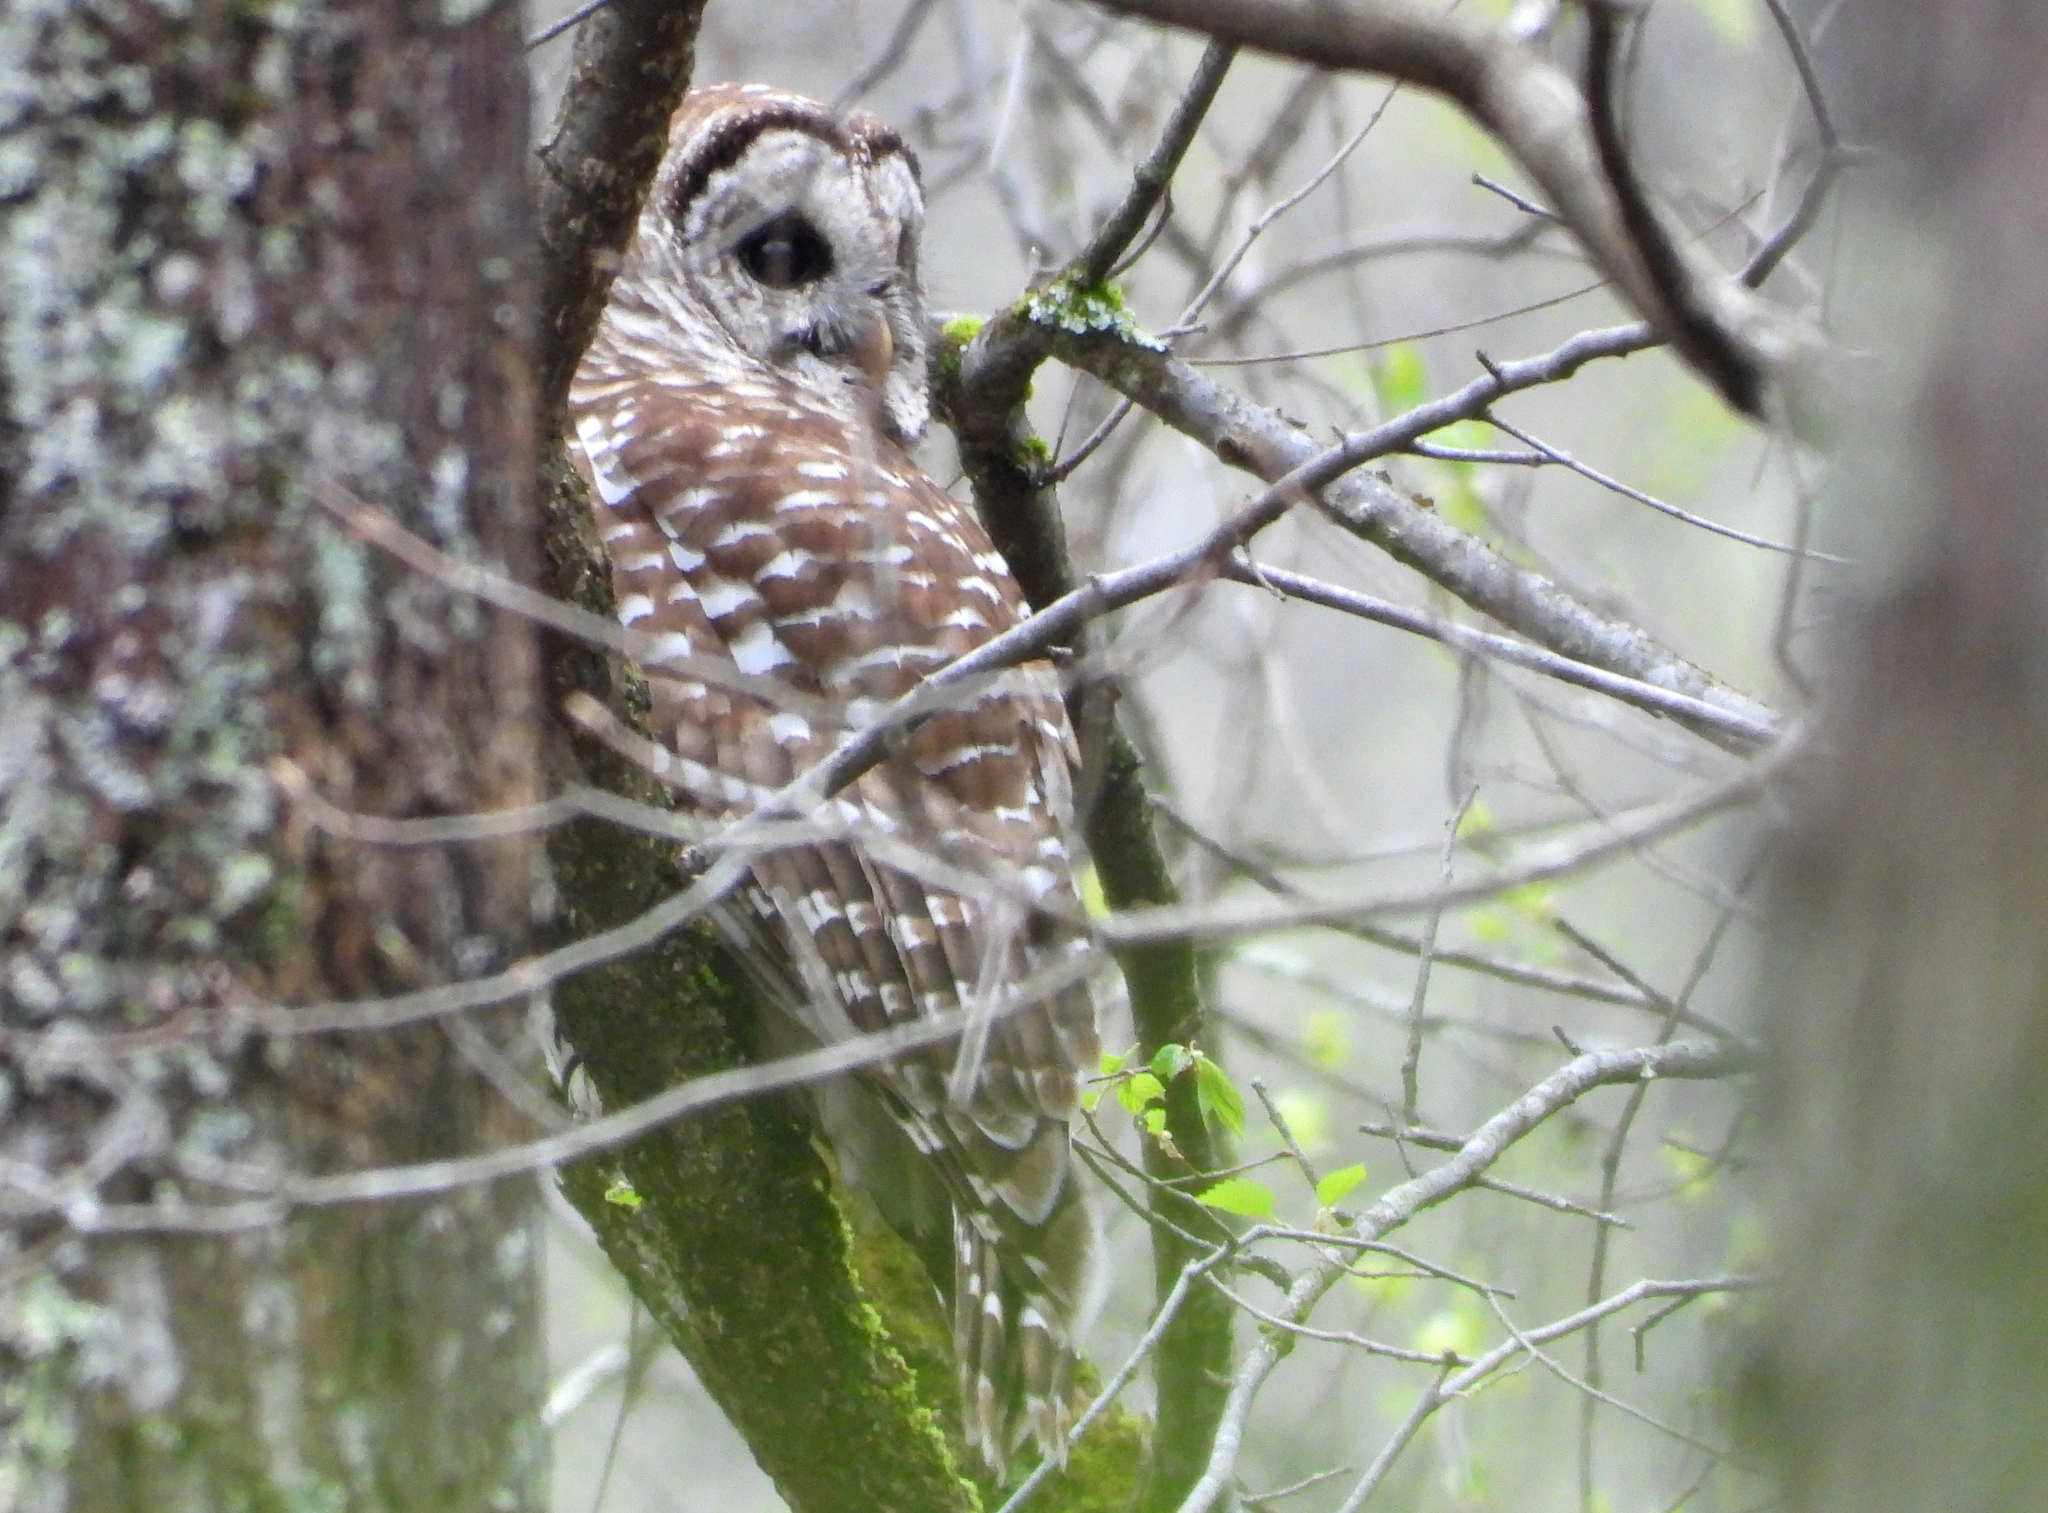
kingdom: Animalia
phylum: Chordata
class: Aves
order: Strigiformes
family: Strigidae
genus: Strix
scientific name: Strix varia
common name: Barred owl
